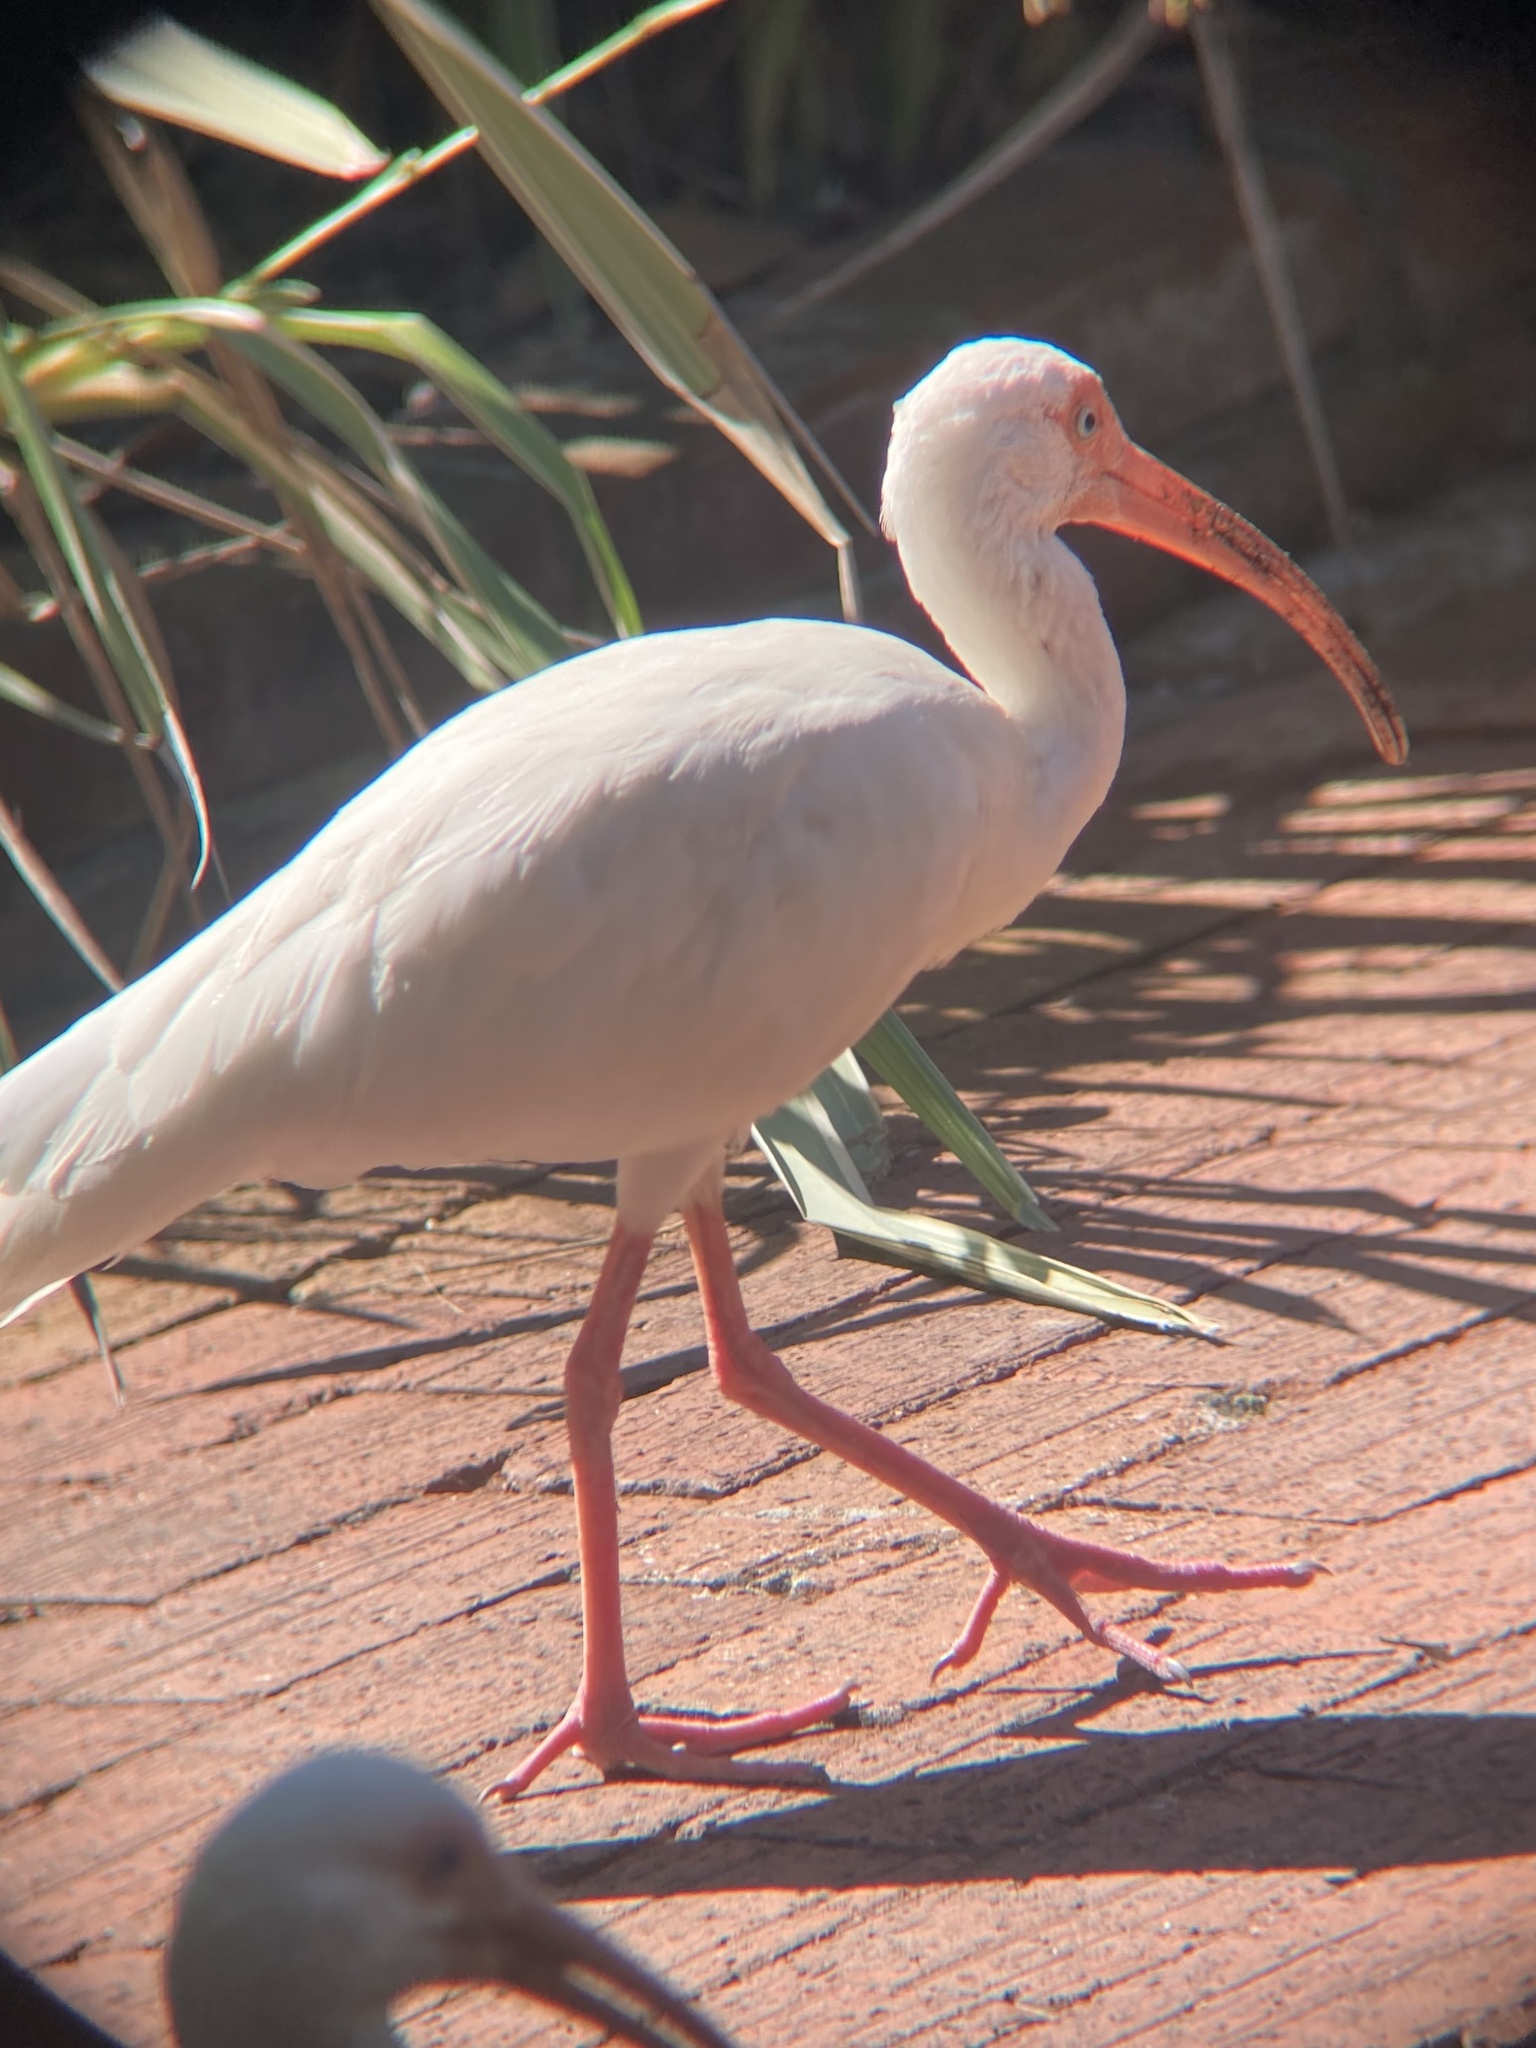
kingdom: Animalia
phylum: Chordata
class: Aves
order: Pelecaniformes
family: Threskiornithidae
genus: Eudocimus
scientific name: Eudocimus albus
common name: White ibis
